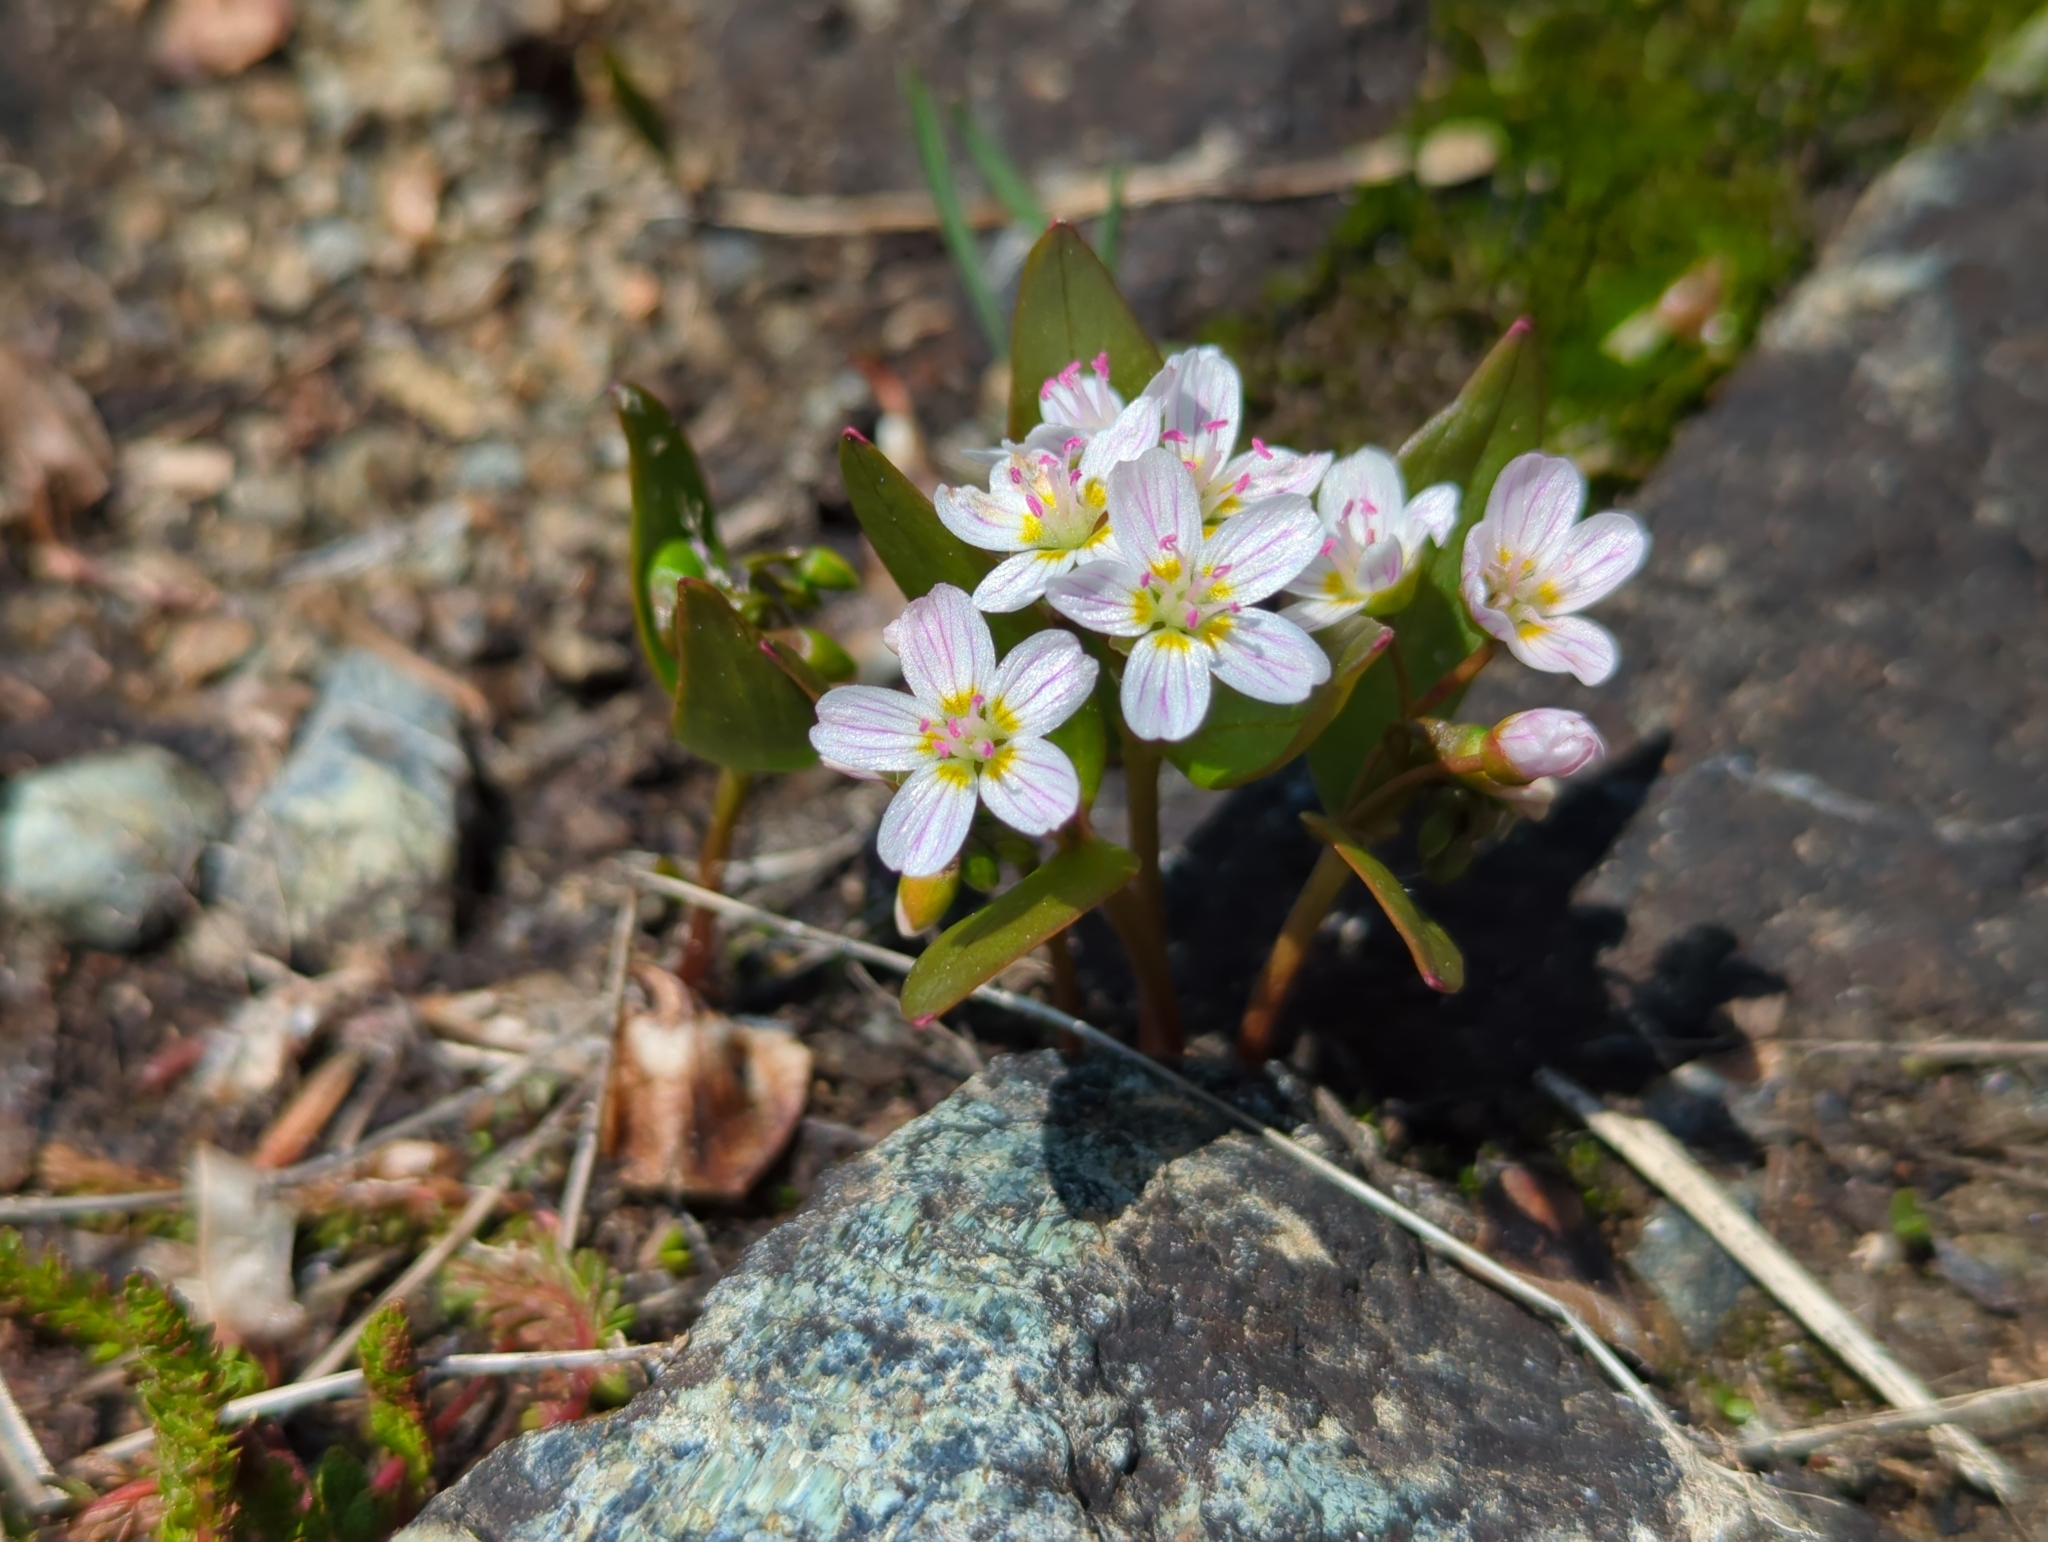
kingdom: Plantae
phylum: Tracheophyta
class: Magnoliopsida
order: Caryophyllales
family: Montiaceae
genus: Claytonia
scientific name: Claytonia lanceolata
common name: Western spring-beauty
